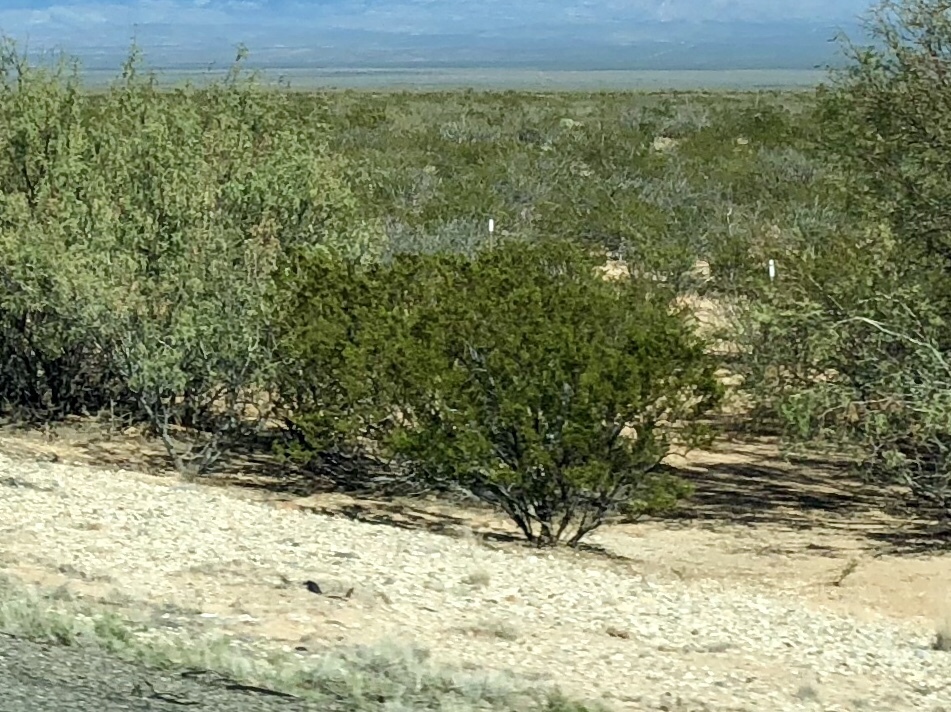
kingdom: Plantae
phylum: Tracheophyta
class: Magnoliopsida
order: Zygophyllales
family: Zygophyllaceae
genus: Larrea
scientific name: Larrea tridentata
